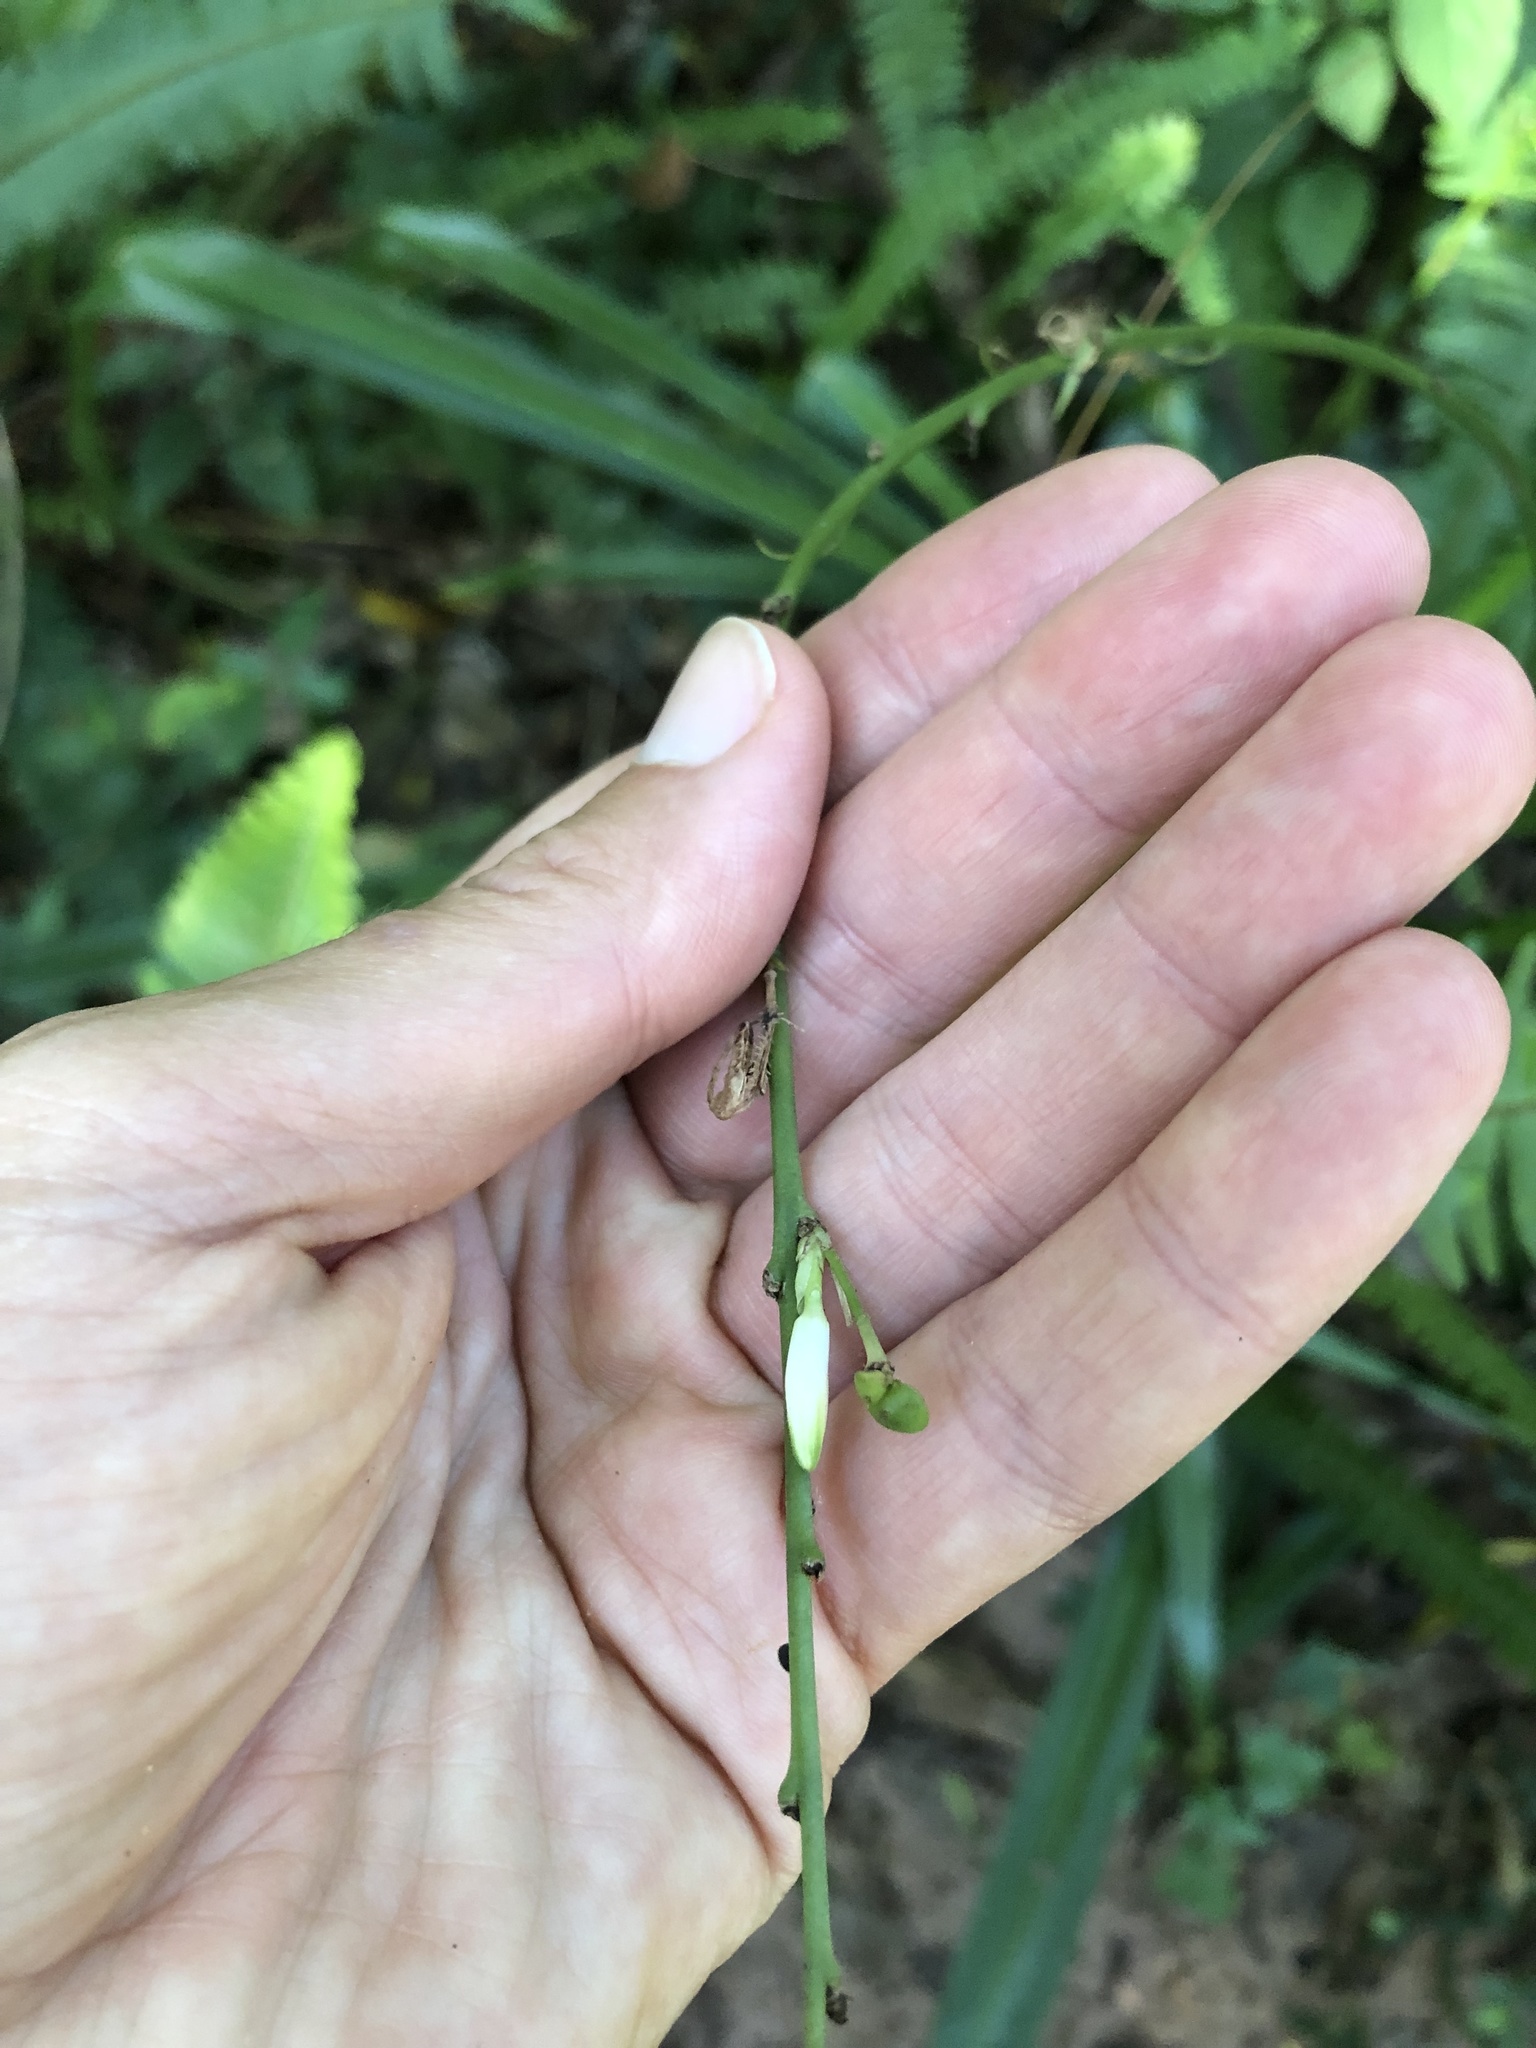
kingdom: Plantae
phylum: Tracheophyta
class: Liliopsida
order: Asparagales
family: Asparagaceae
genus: Chlorophytum
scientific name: Chlorophytum comosum
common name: Spider plant
